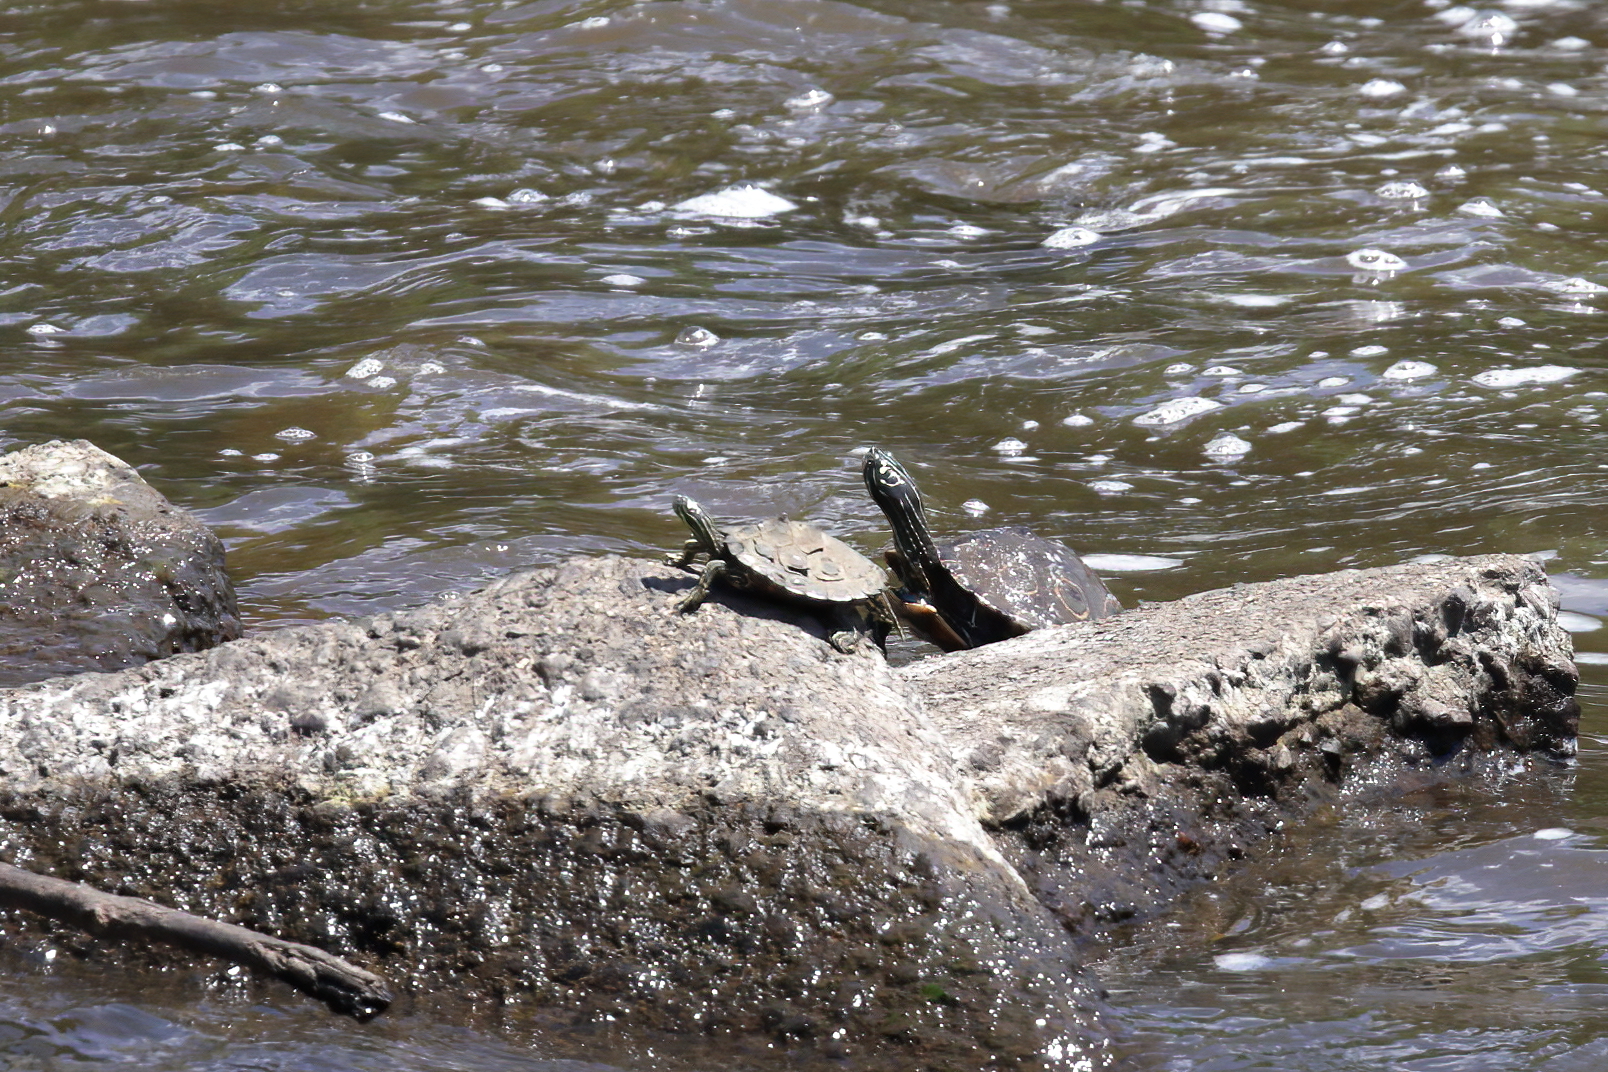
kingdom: Animalia
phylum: Chordata
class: Testudines
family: Emydidae
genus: Graptemys
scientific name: Graptemys oculifera
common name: Ringed map turtle
